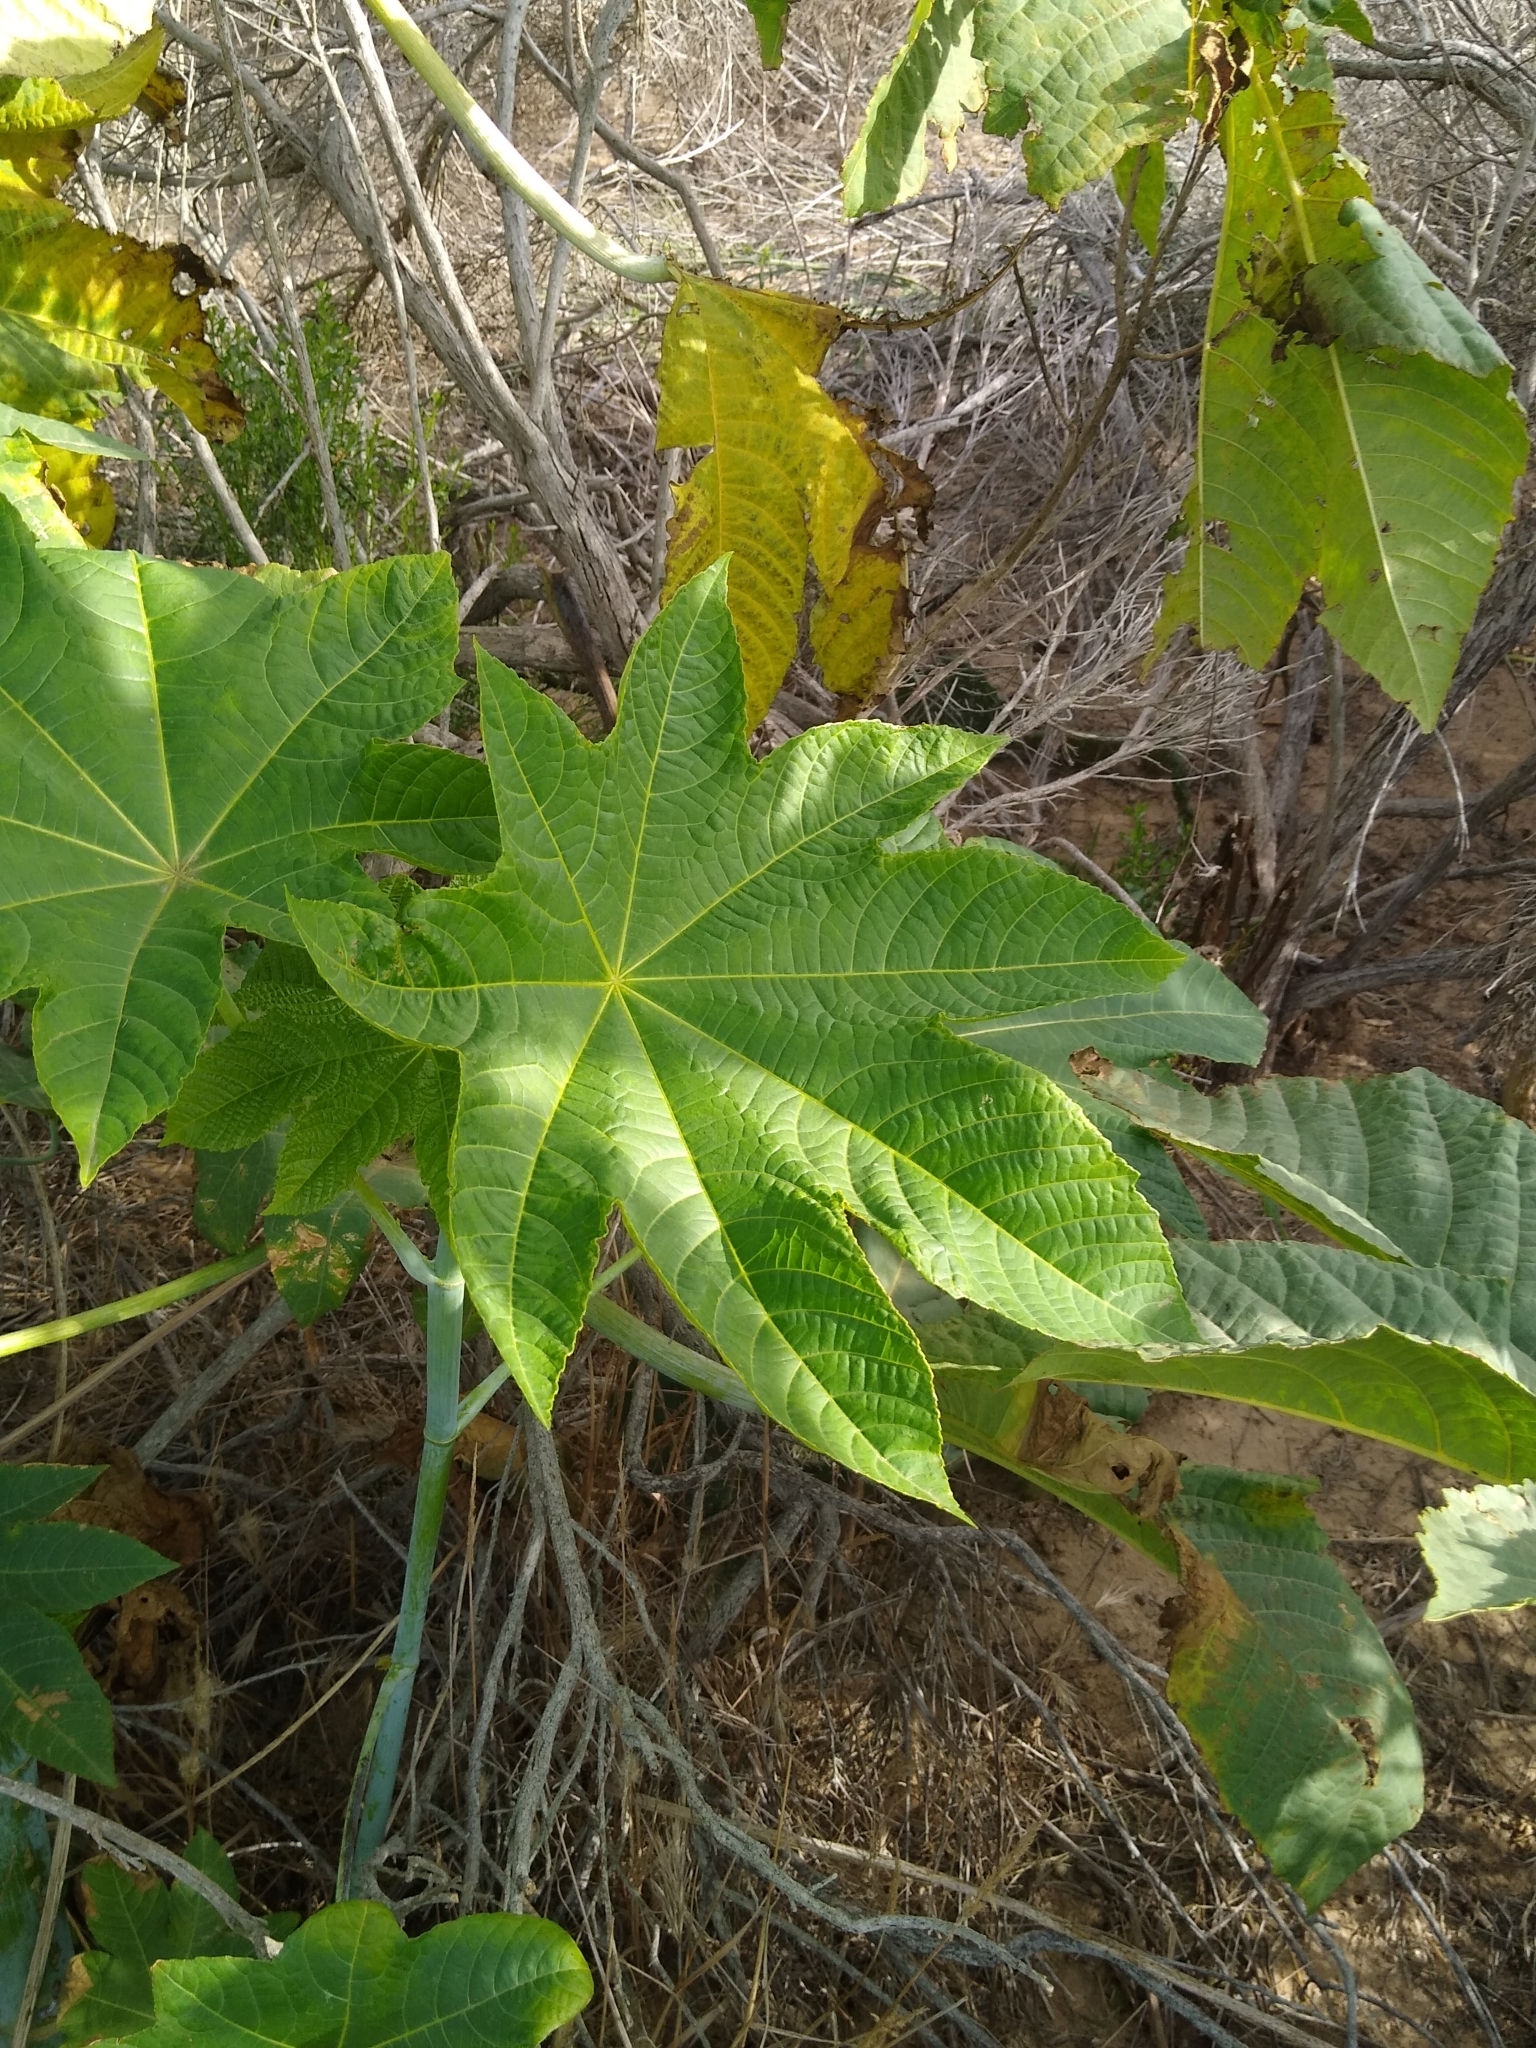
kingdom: Plantae
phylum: Tracheophyta
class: Magnoliopsida
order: Malpighiales
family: Euphorbiaceae
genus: Ricinus
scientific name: Ricinus communis
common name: Castor-oil-plant
